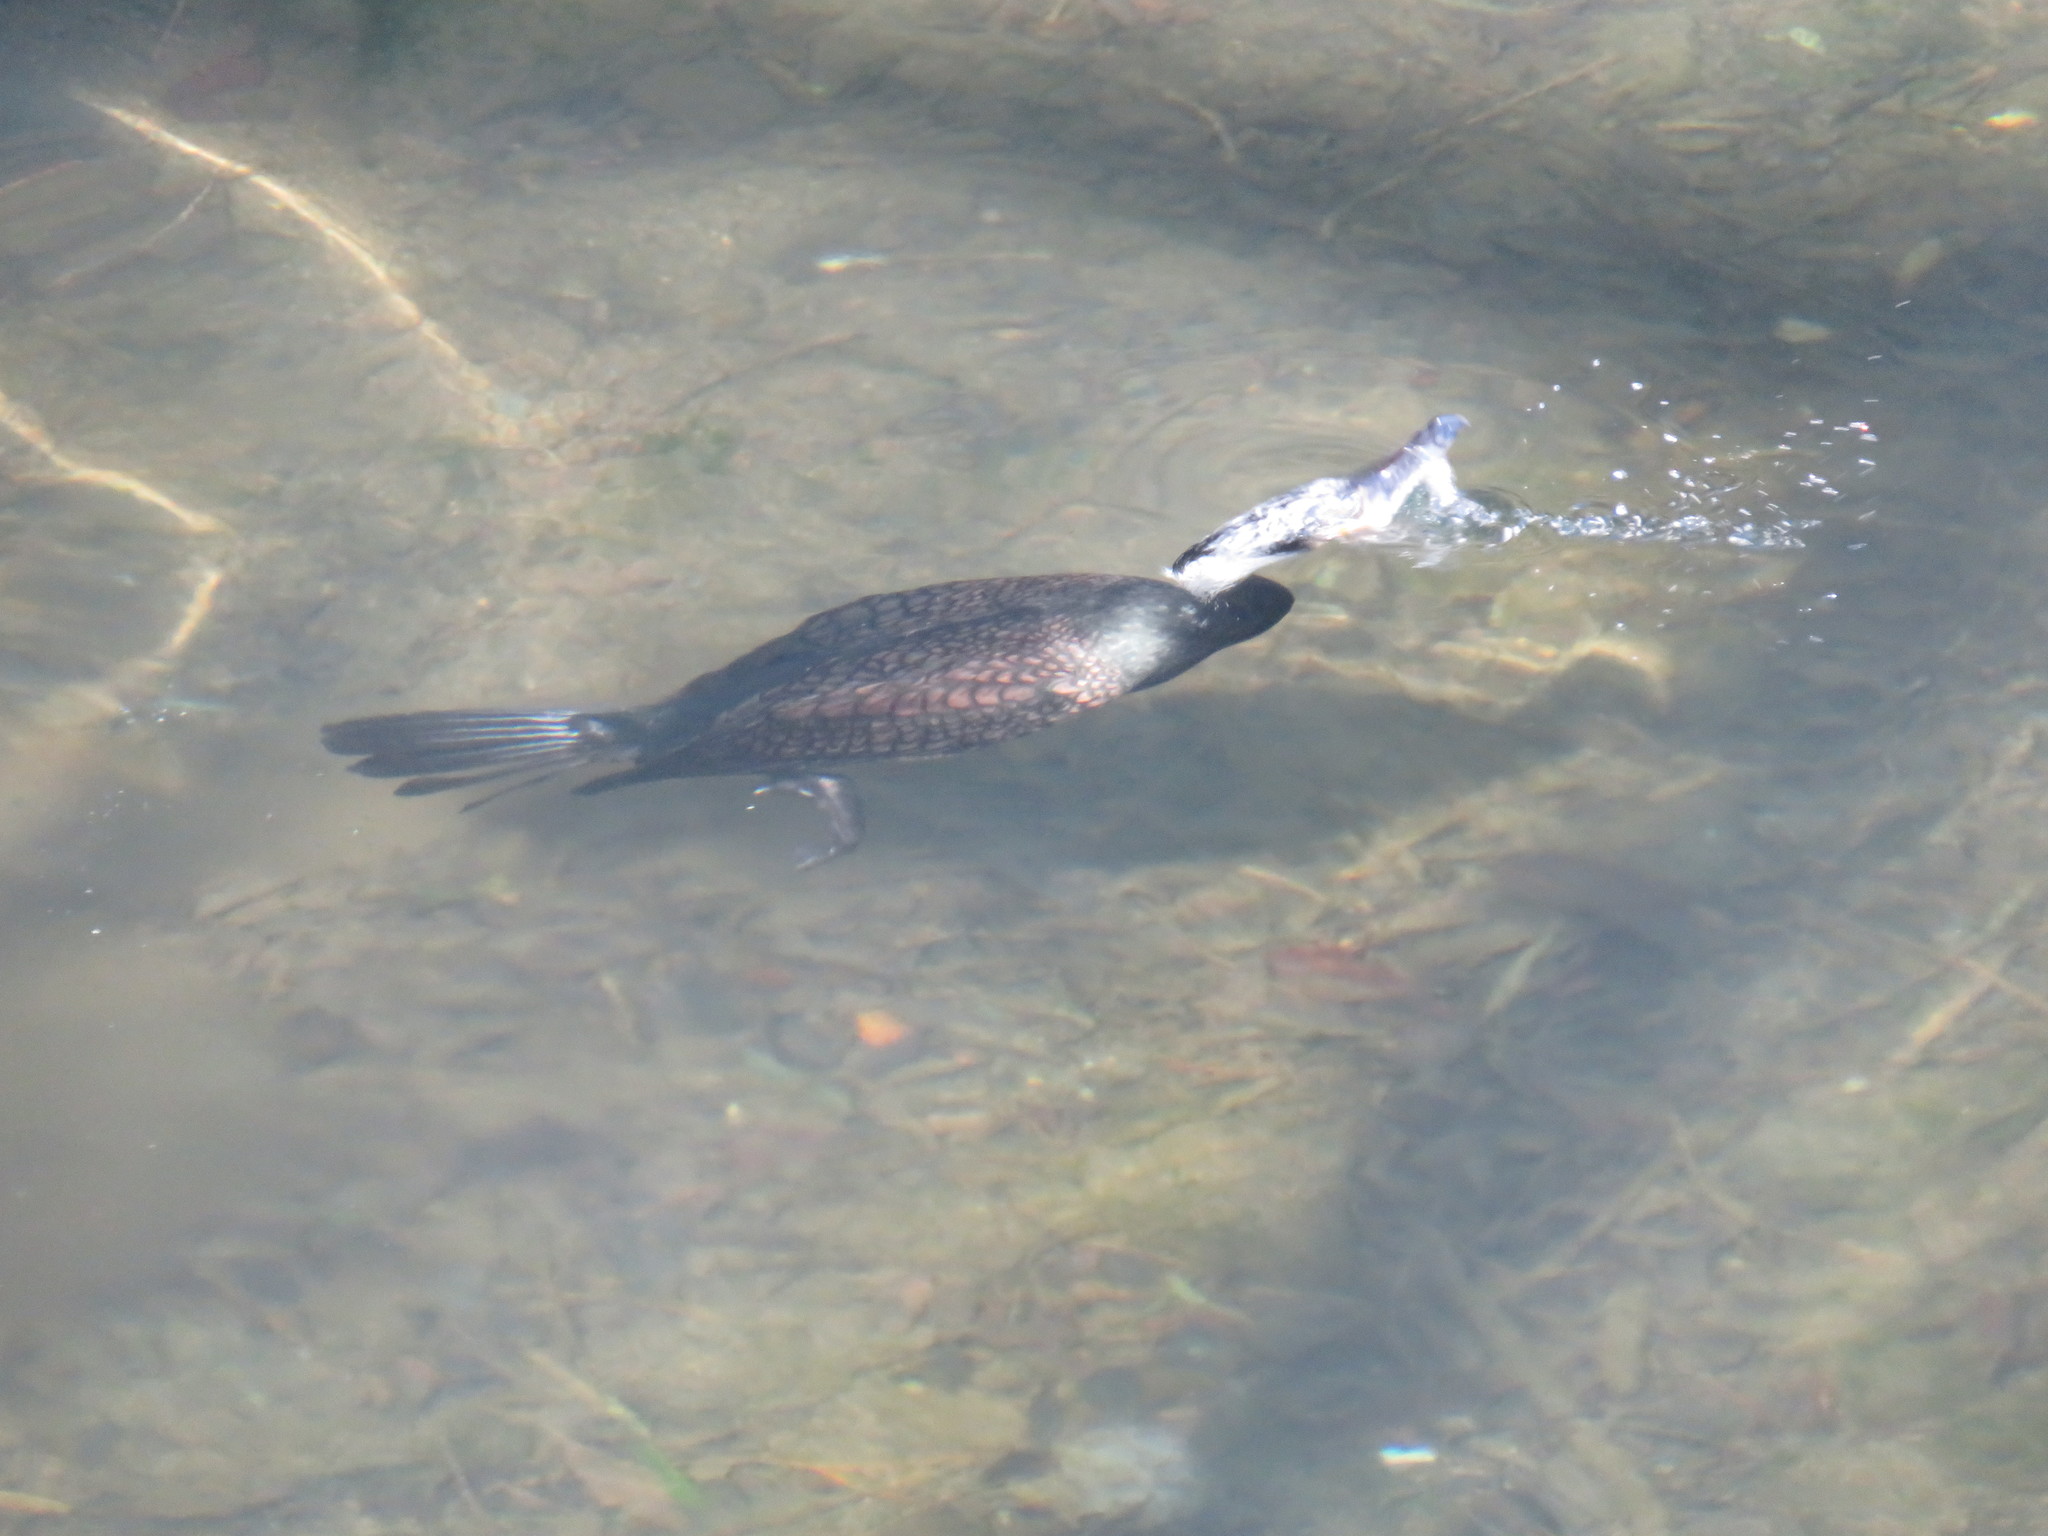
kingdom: Animalia
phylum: Chordata
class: Aves
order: Suliformes
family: Phalacrocoracidae
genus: Phalacrocorax
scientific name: Phalacrocorax carbo
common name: Great cormorant
